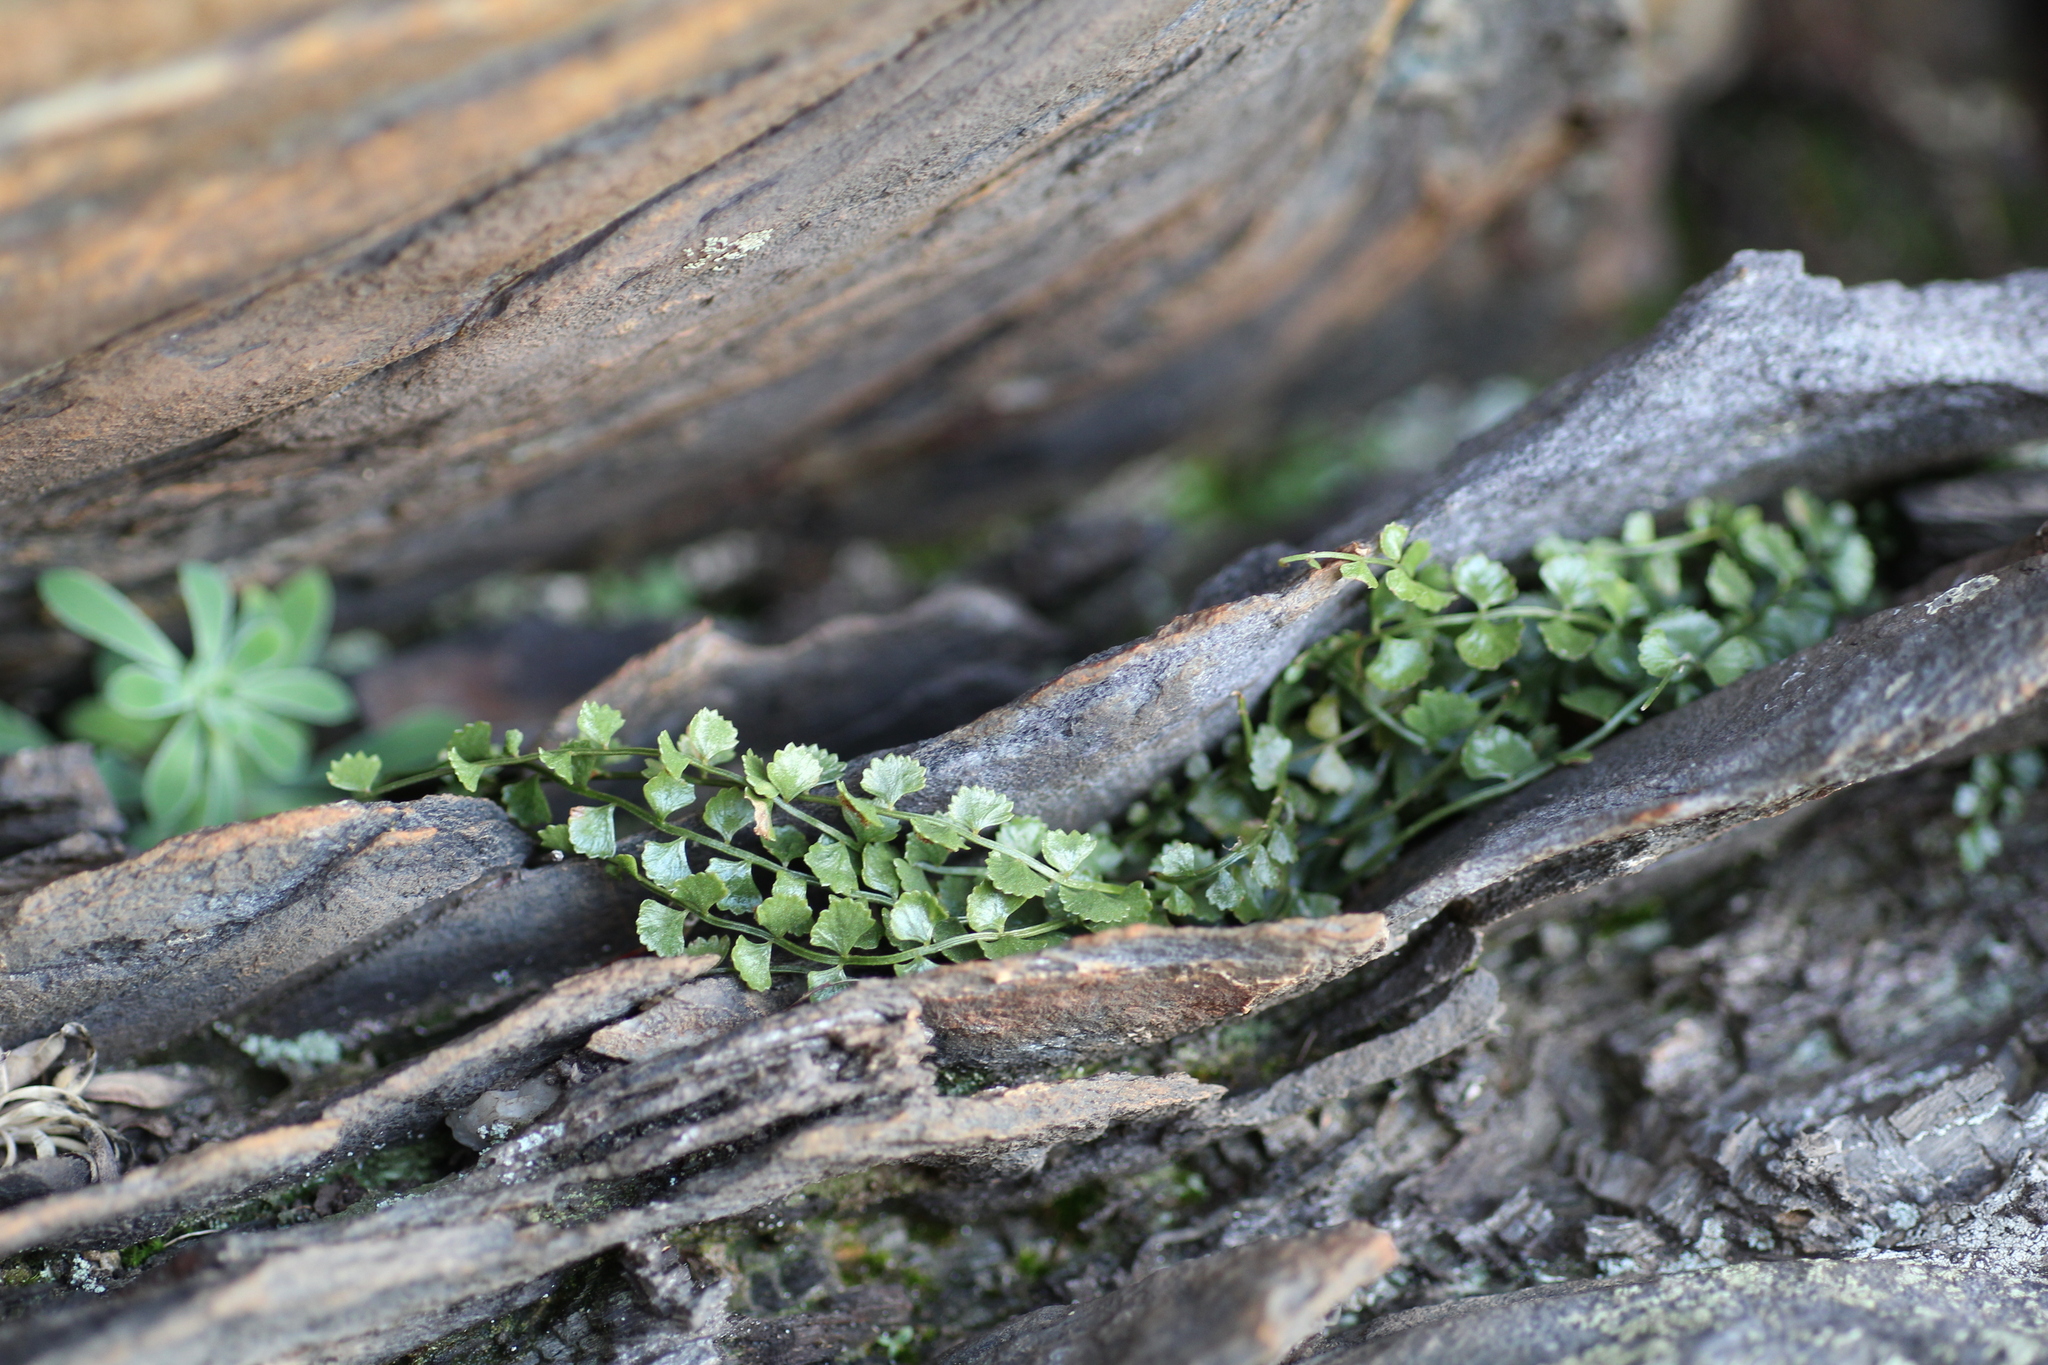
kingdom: Plantae
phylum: Tracheophyta
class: Polypodiopsida
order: Polypodiales
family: Aspleniaceae
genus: Asplenium
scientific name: Asplenium flabellifolium
